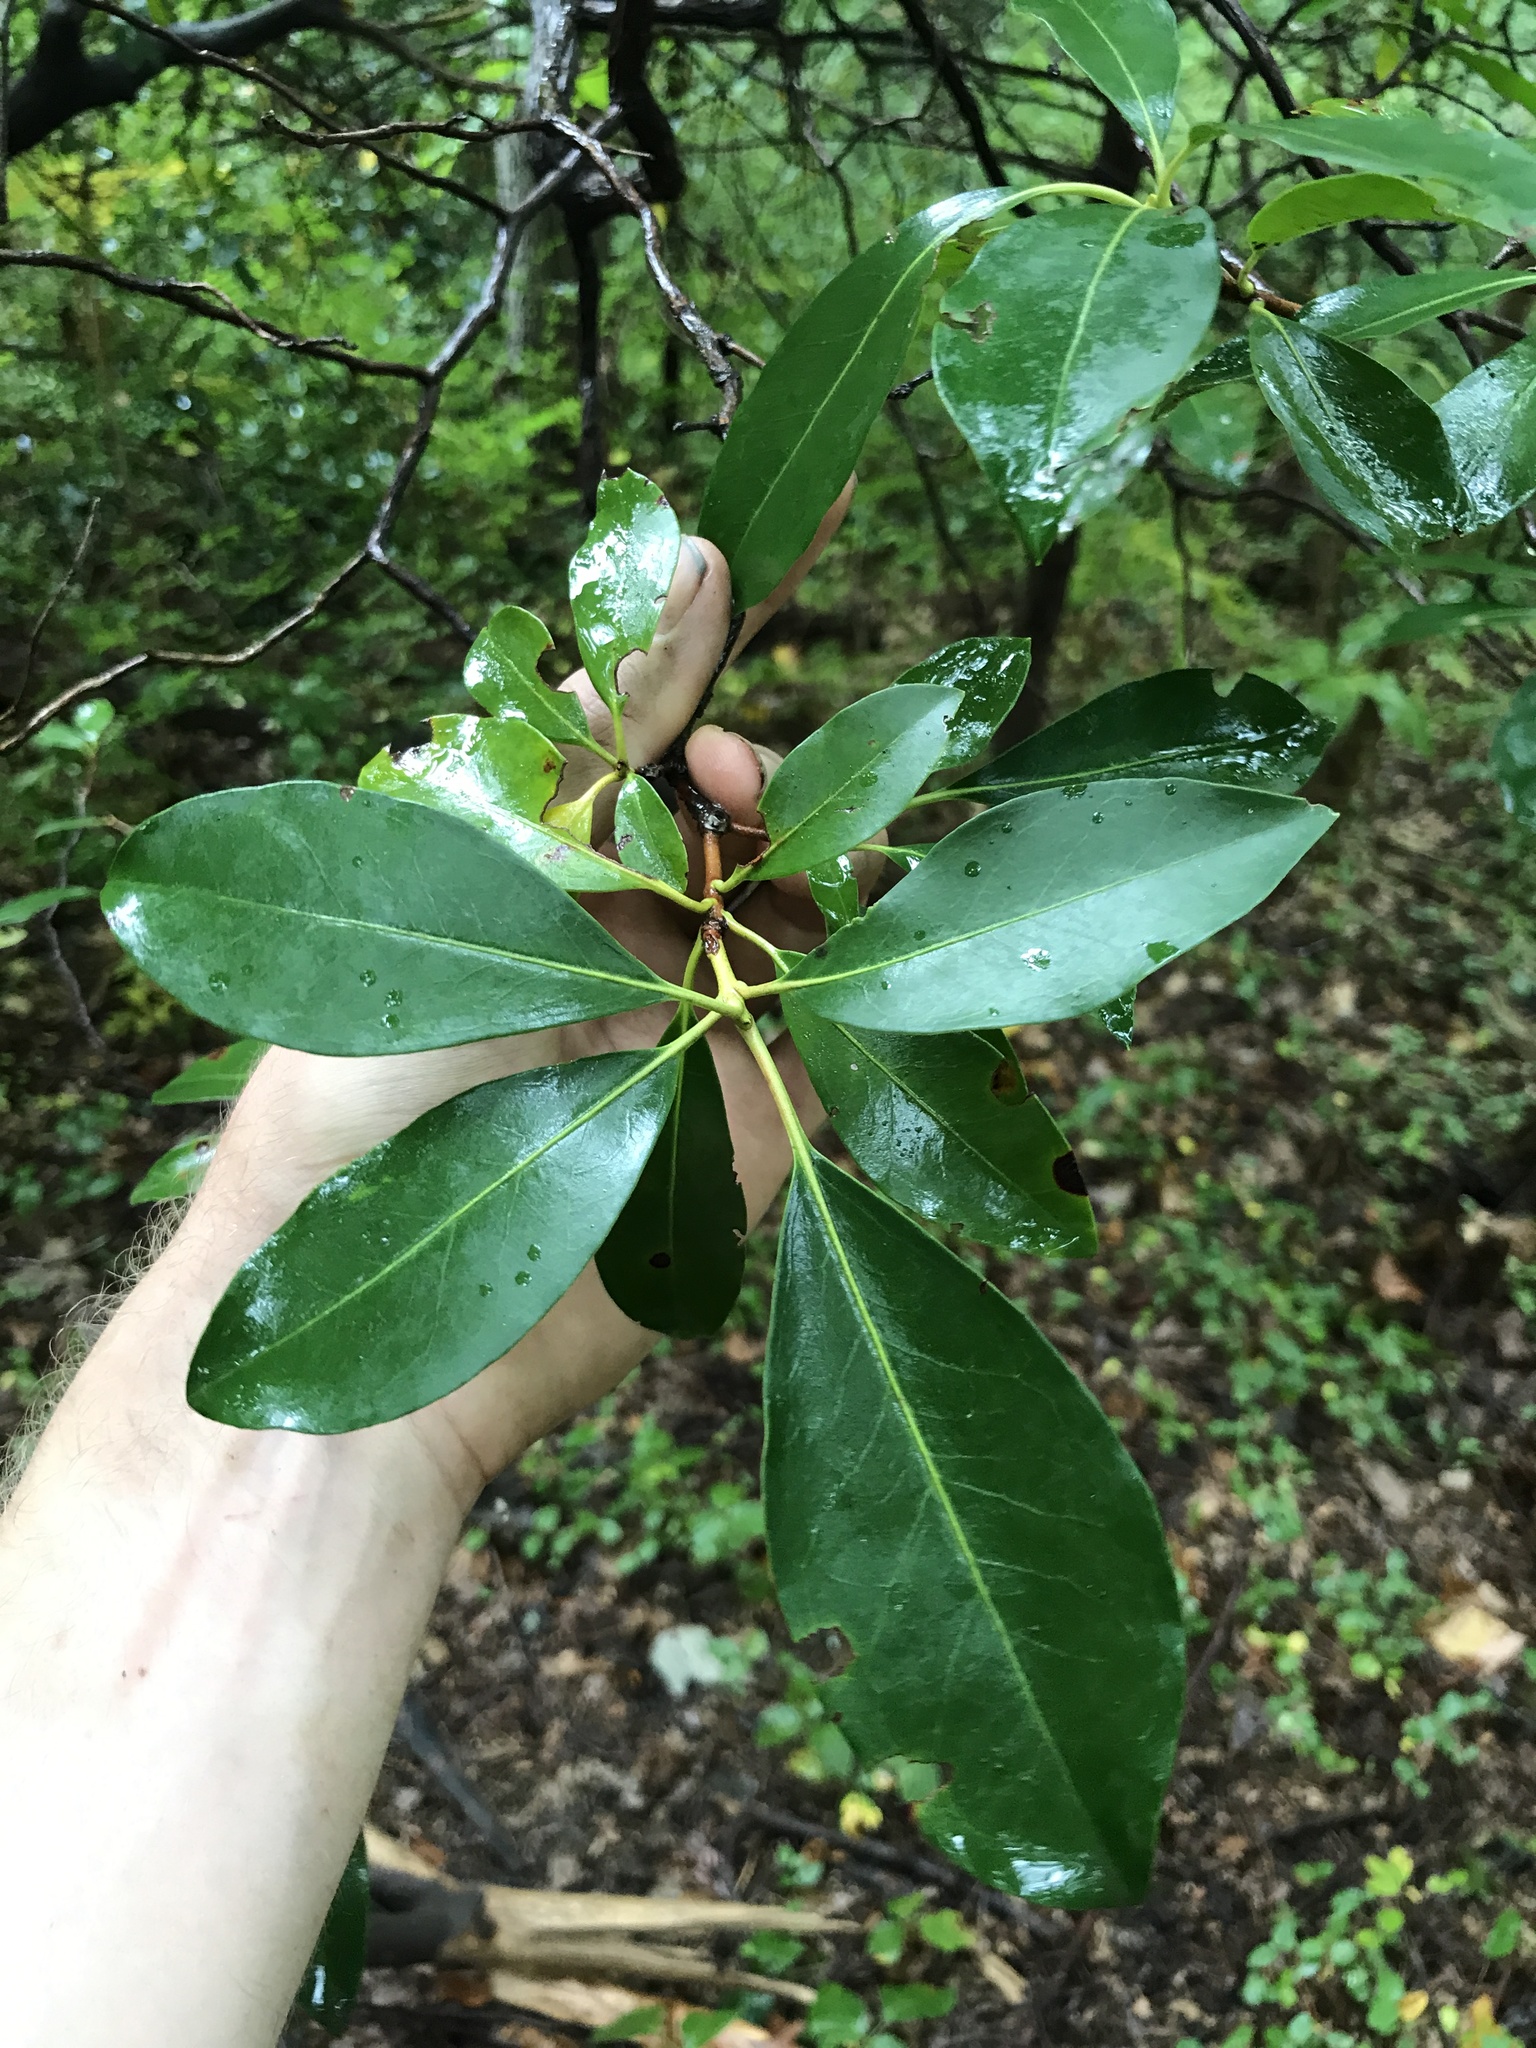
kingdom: Plantae
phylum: Tracheophyta
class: Magnoliopsida
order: Ericales
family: Ericaceae
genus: Kalmia
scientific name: Kalmia latifolia
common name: Mountain-laurel
